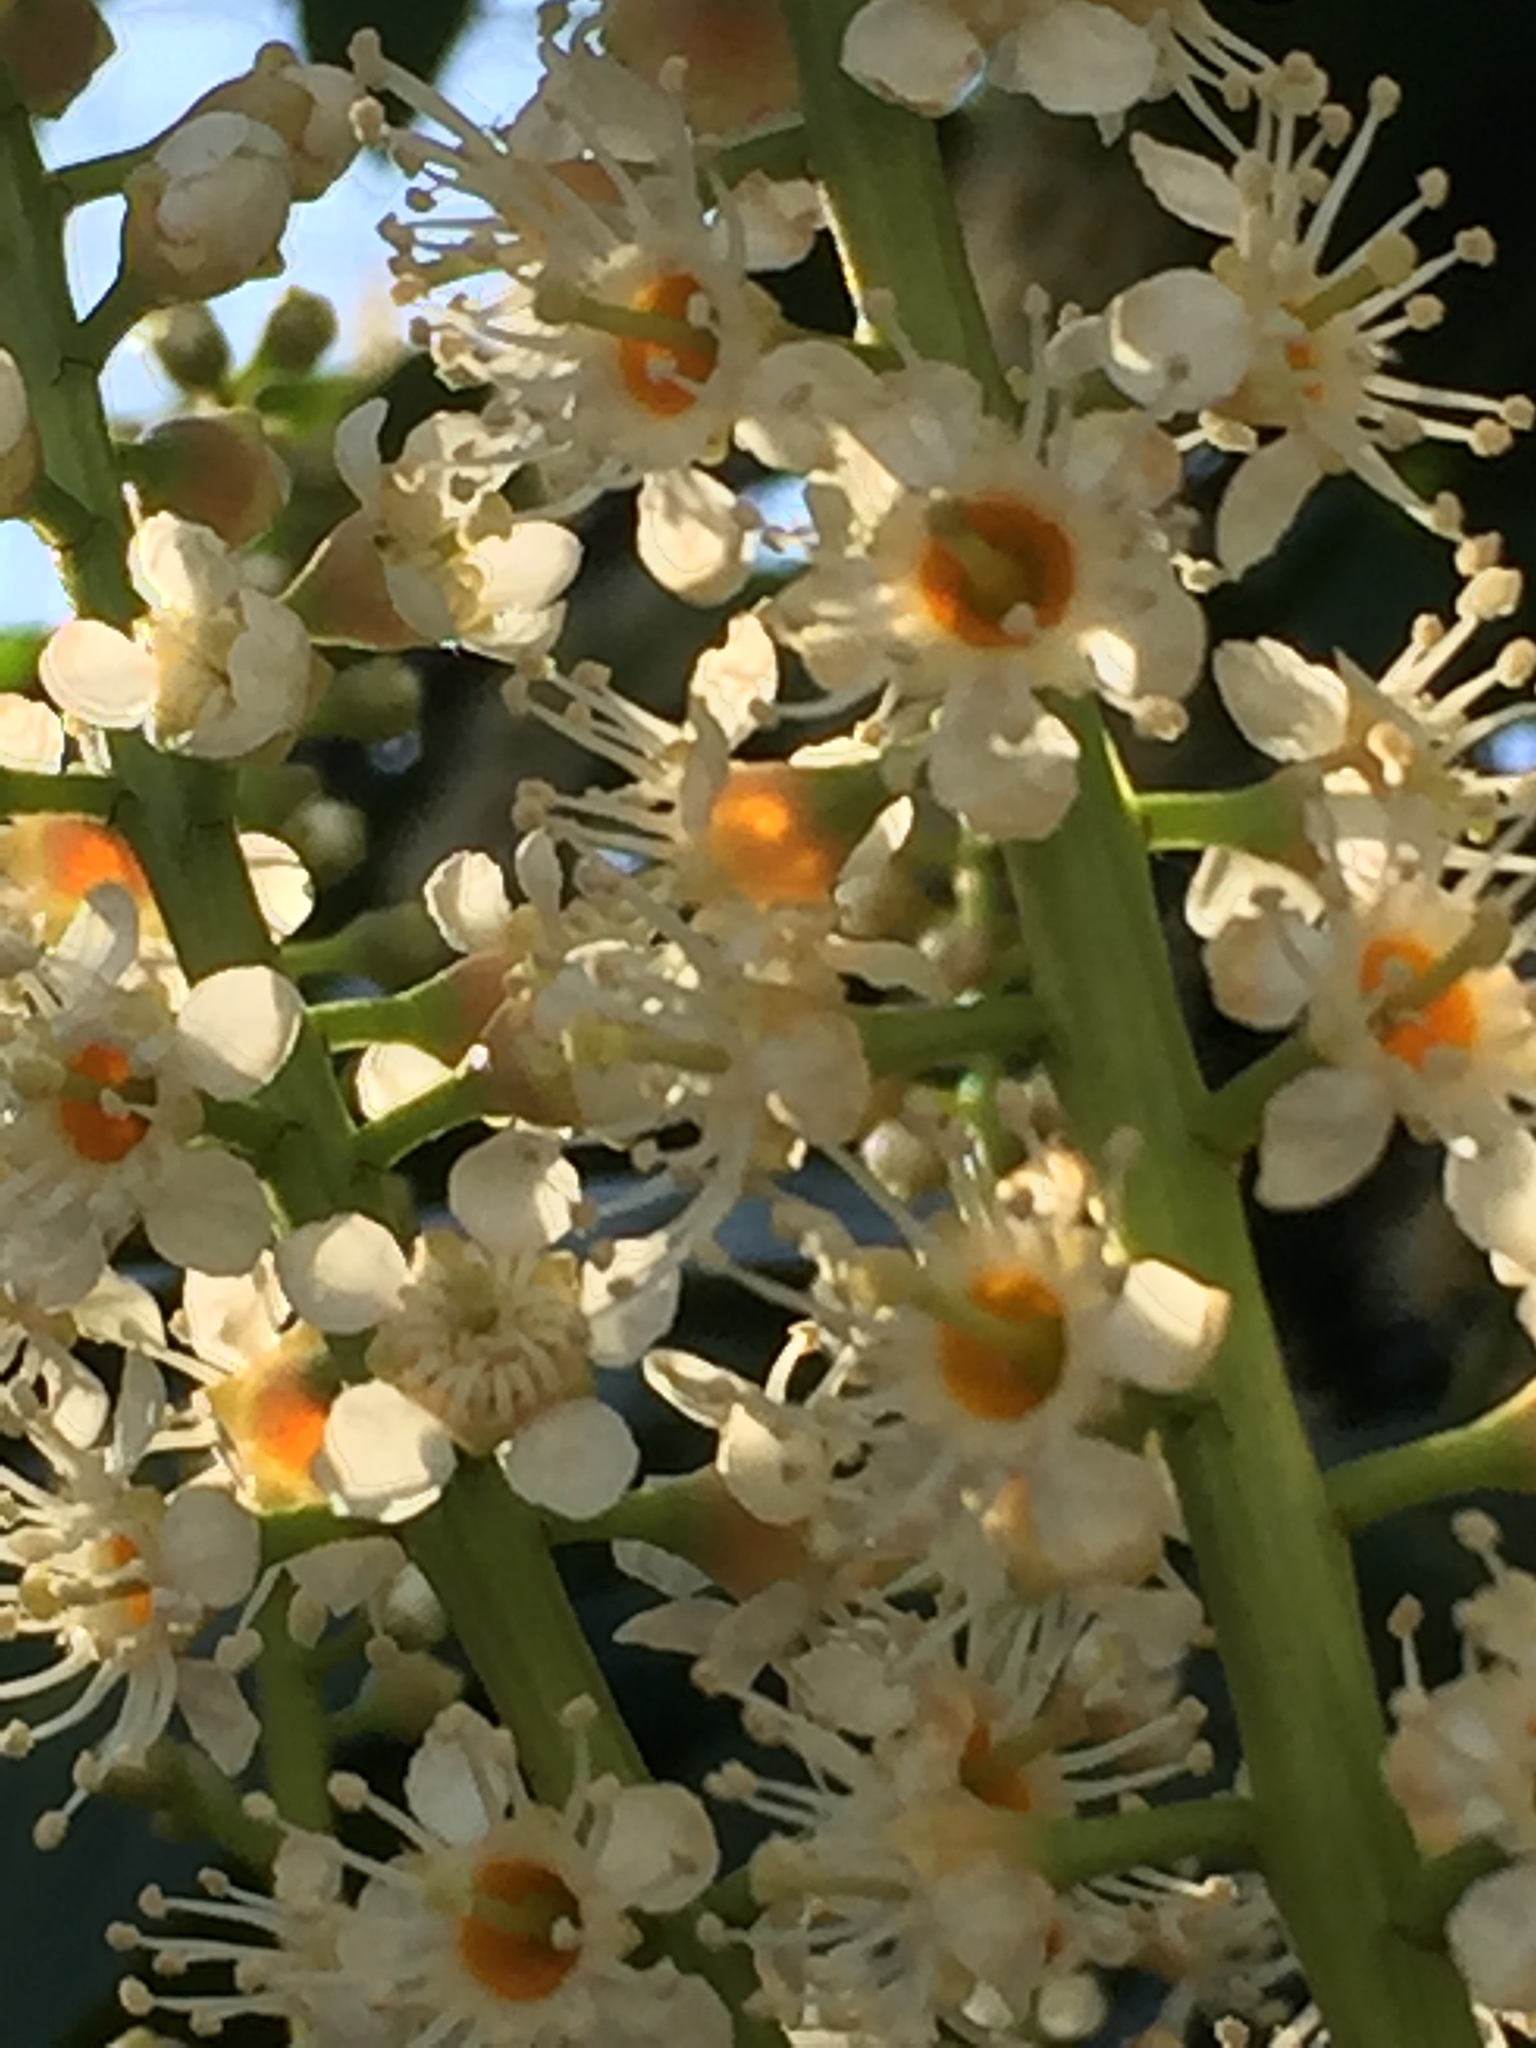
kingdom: Plantae
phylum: Tracheophyta
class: Magnoliopsida
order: Rosales
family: Rosaceae
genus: Prunus
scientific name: Prunus laurocerasus
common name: Cherry laurel
